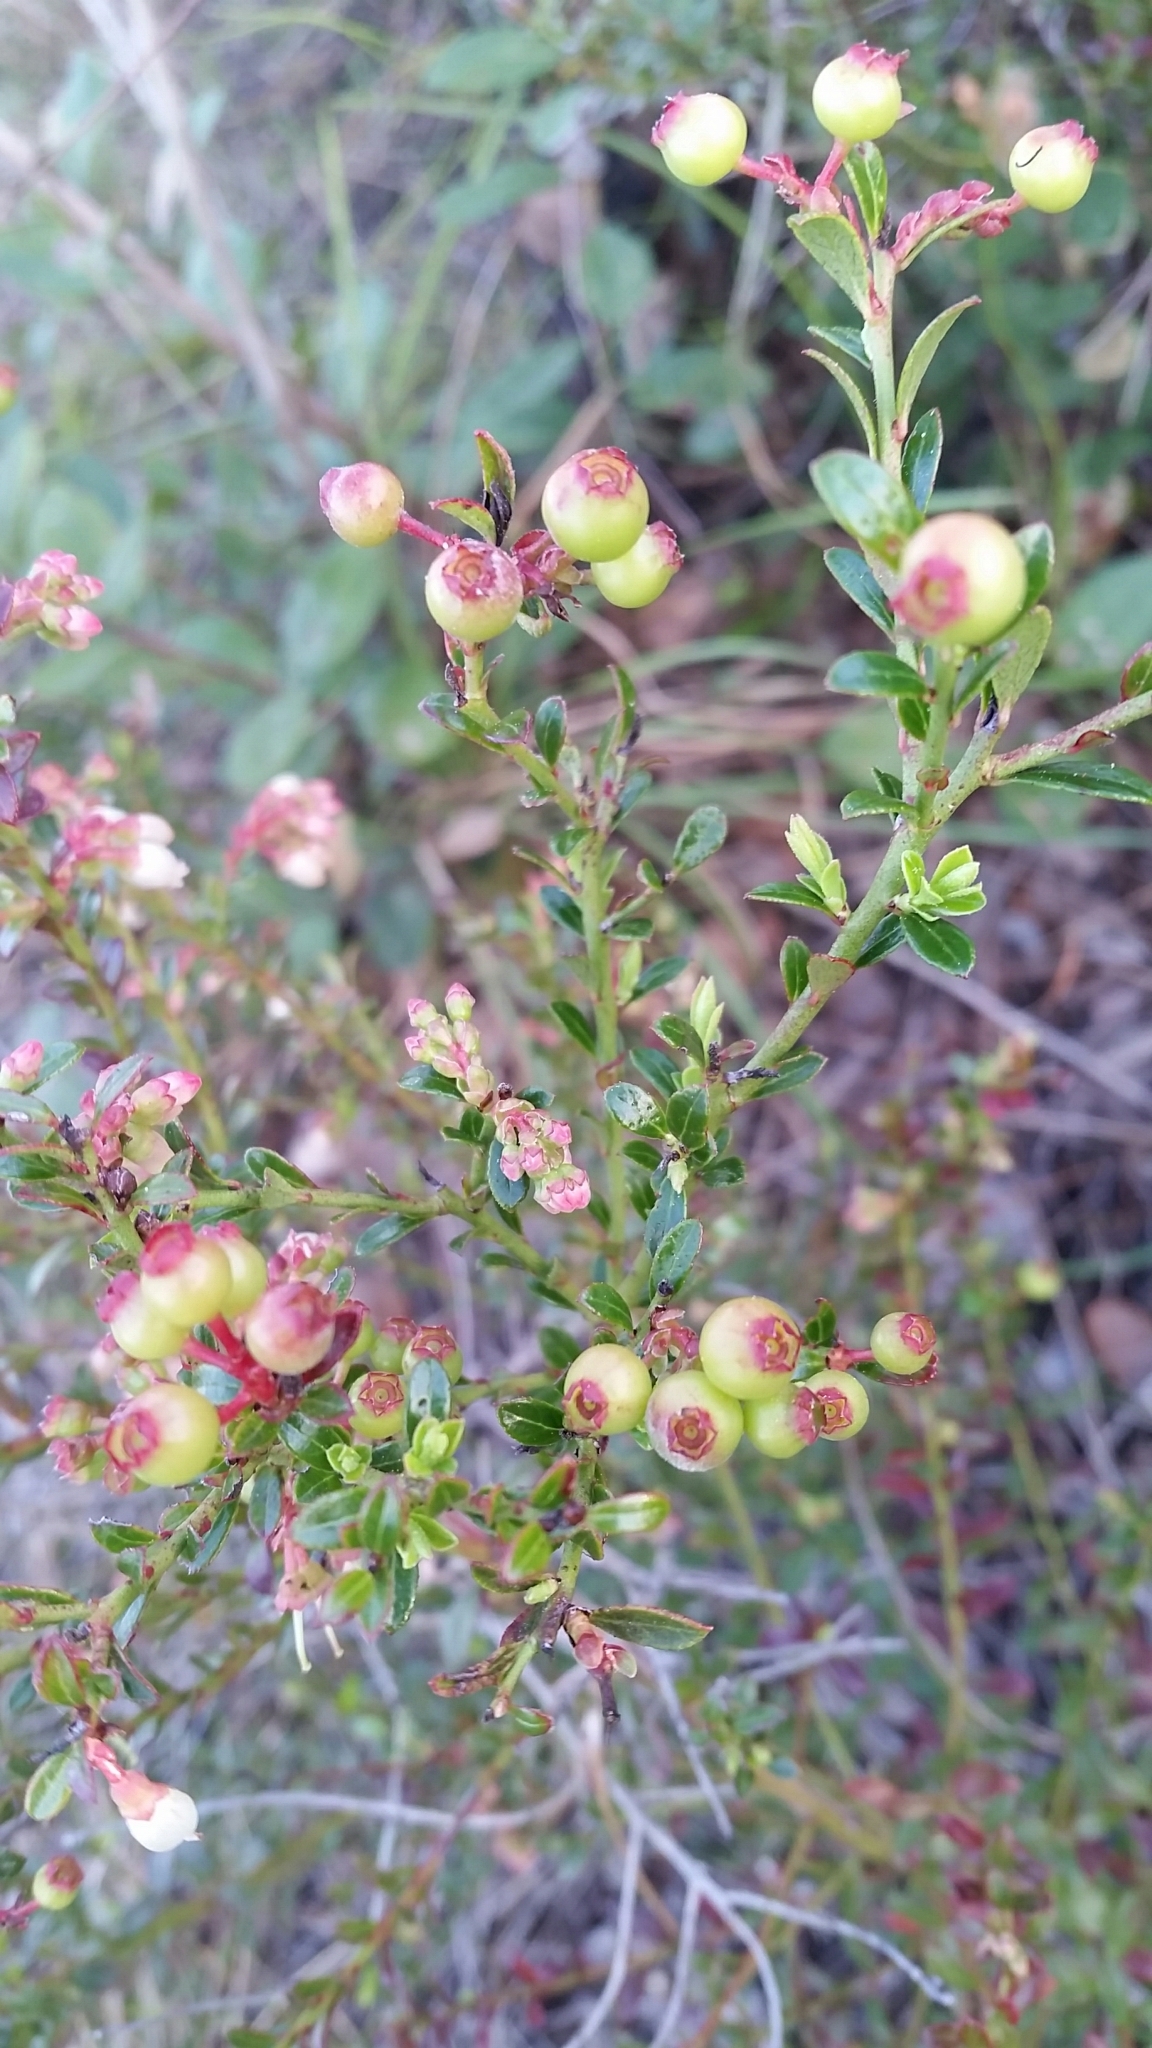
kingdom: Plantae
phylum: Tracheophyta
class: Magnoliopsida
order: Ericales
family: Ericaceae
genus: Vaccinium
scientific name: Vaccinium myrsinites
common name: Evergreen blueberry
